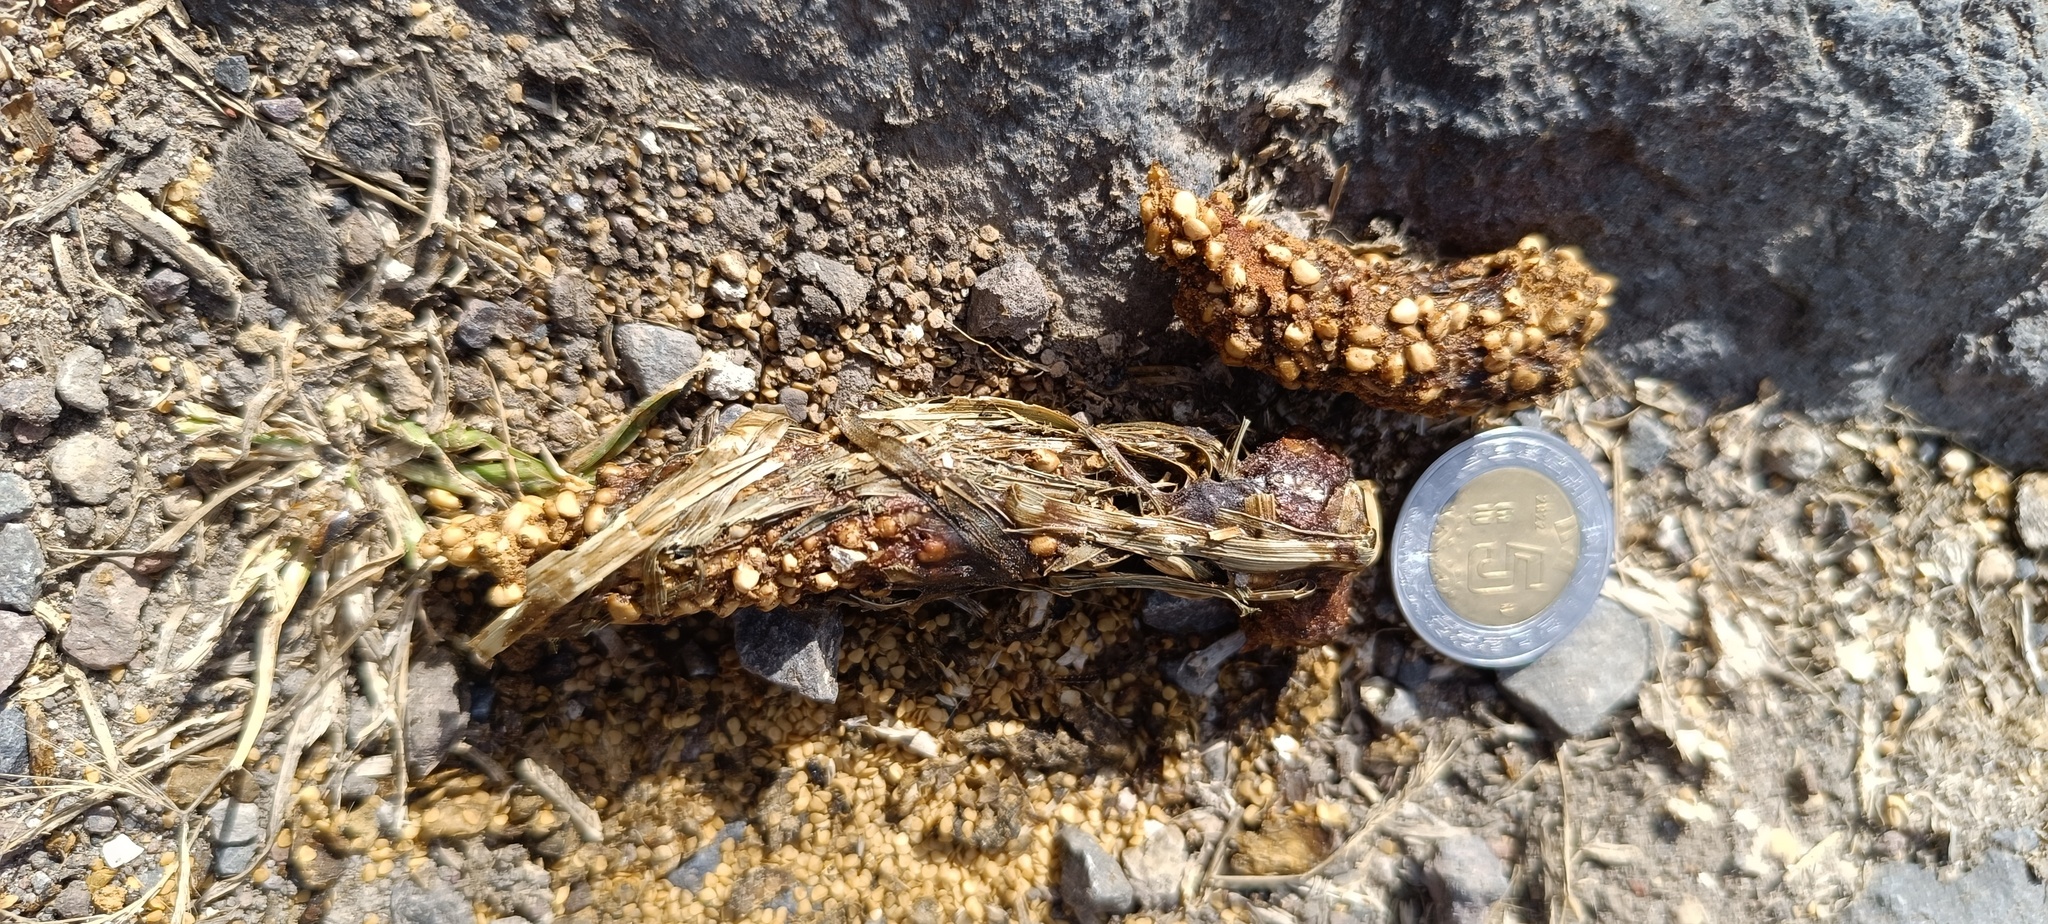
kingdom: Animalia
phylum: Chordata
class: Mammalia
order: Carnivora
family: Procyonidae
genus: Bassariscus
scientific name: Bassariscus astutus
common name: Ringtail
